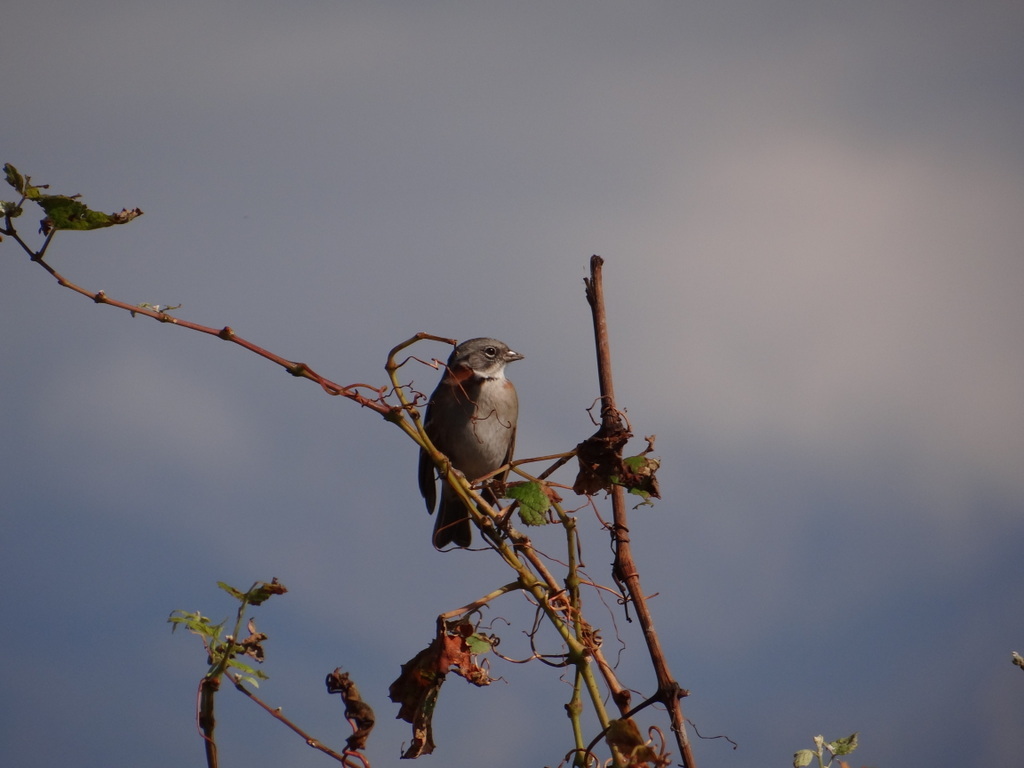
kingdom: Animalia
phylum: Chordata
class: Aves
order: Passeriformes
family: Passerellidae
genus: Zonotrichia
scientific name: Zonotrichia capensis
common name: Rufous-collared sparrow
